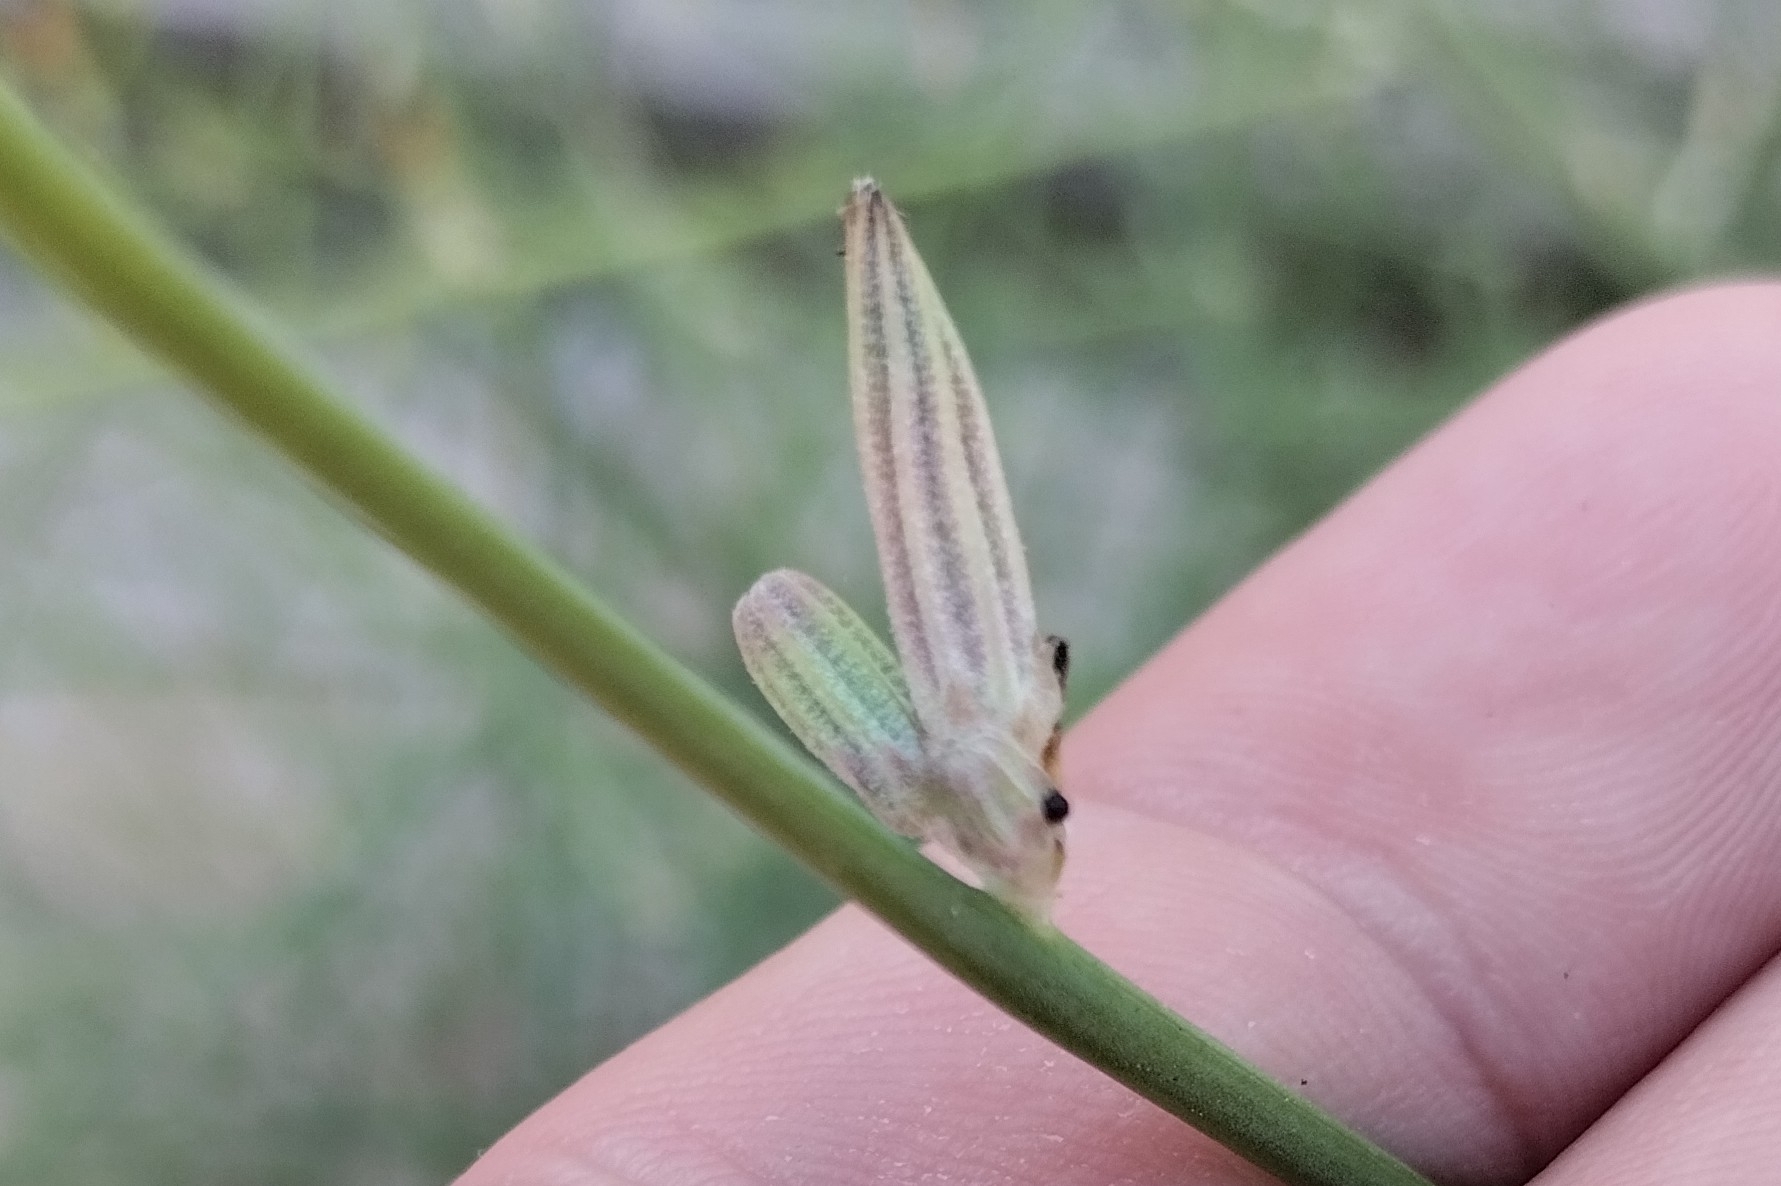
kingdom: Plantae
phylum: Tracheophyta
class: Magnoliopsida
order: Asterales
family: Asteraceae
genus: Chondrilla
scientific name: Chondrilla juncea
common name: Skeleton weed
